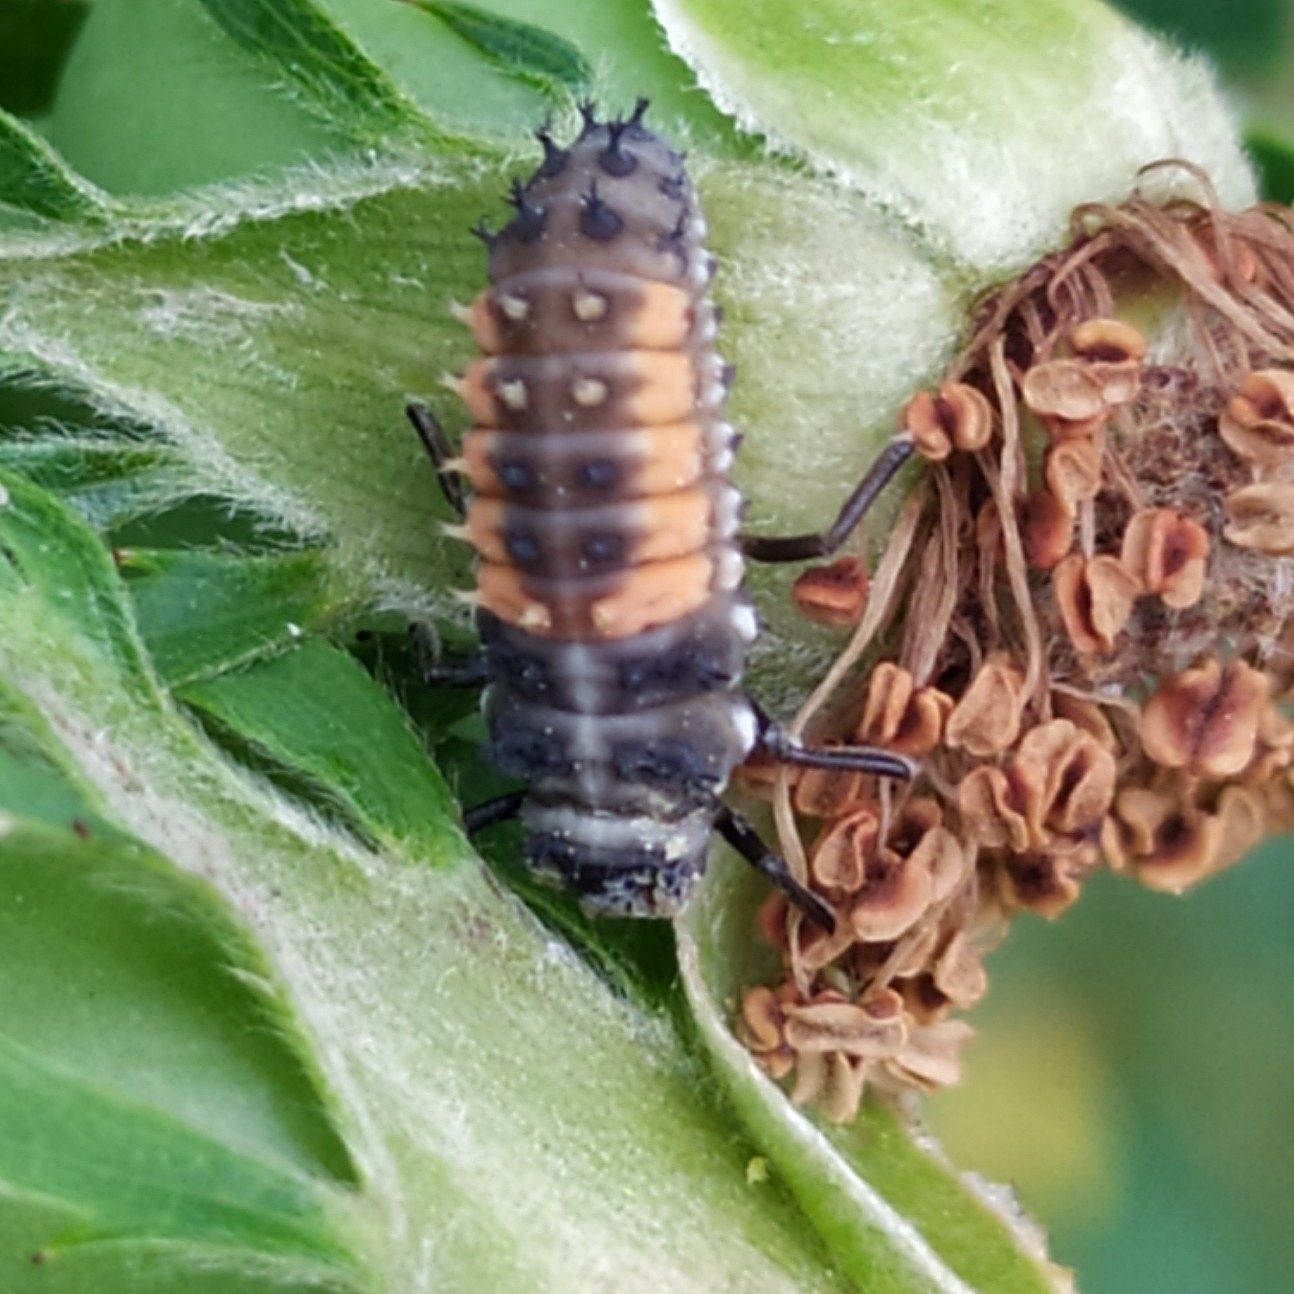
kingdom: Animalia
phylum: Arthropoda
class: Insecta
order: Coleoptera
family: Coccinellidae
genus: Harmonia
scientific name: Harmonia axyridis
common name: Harlequin ladybird
